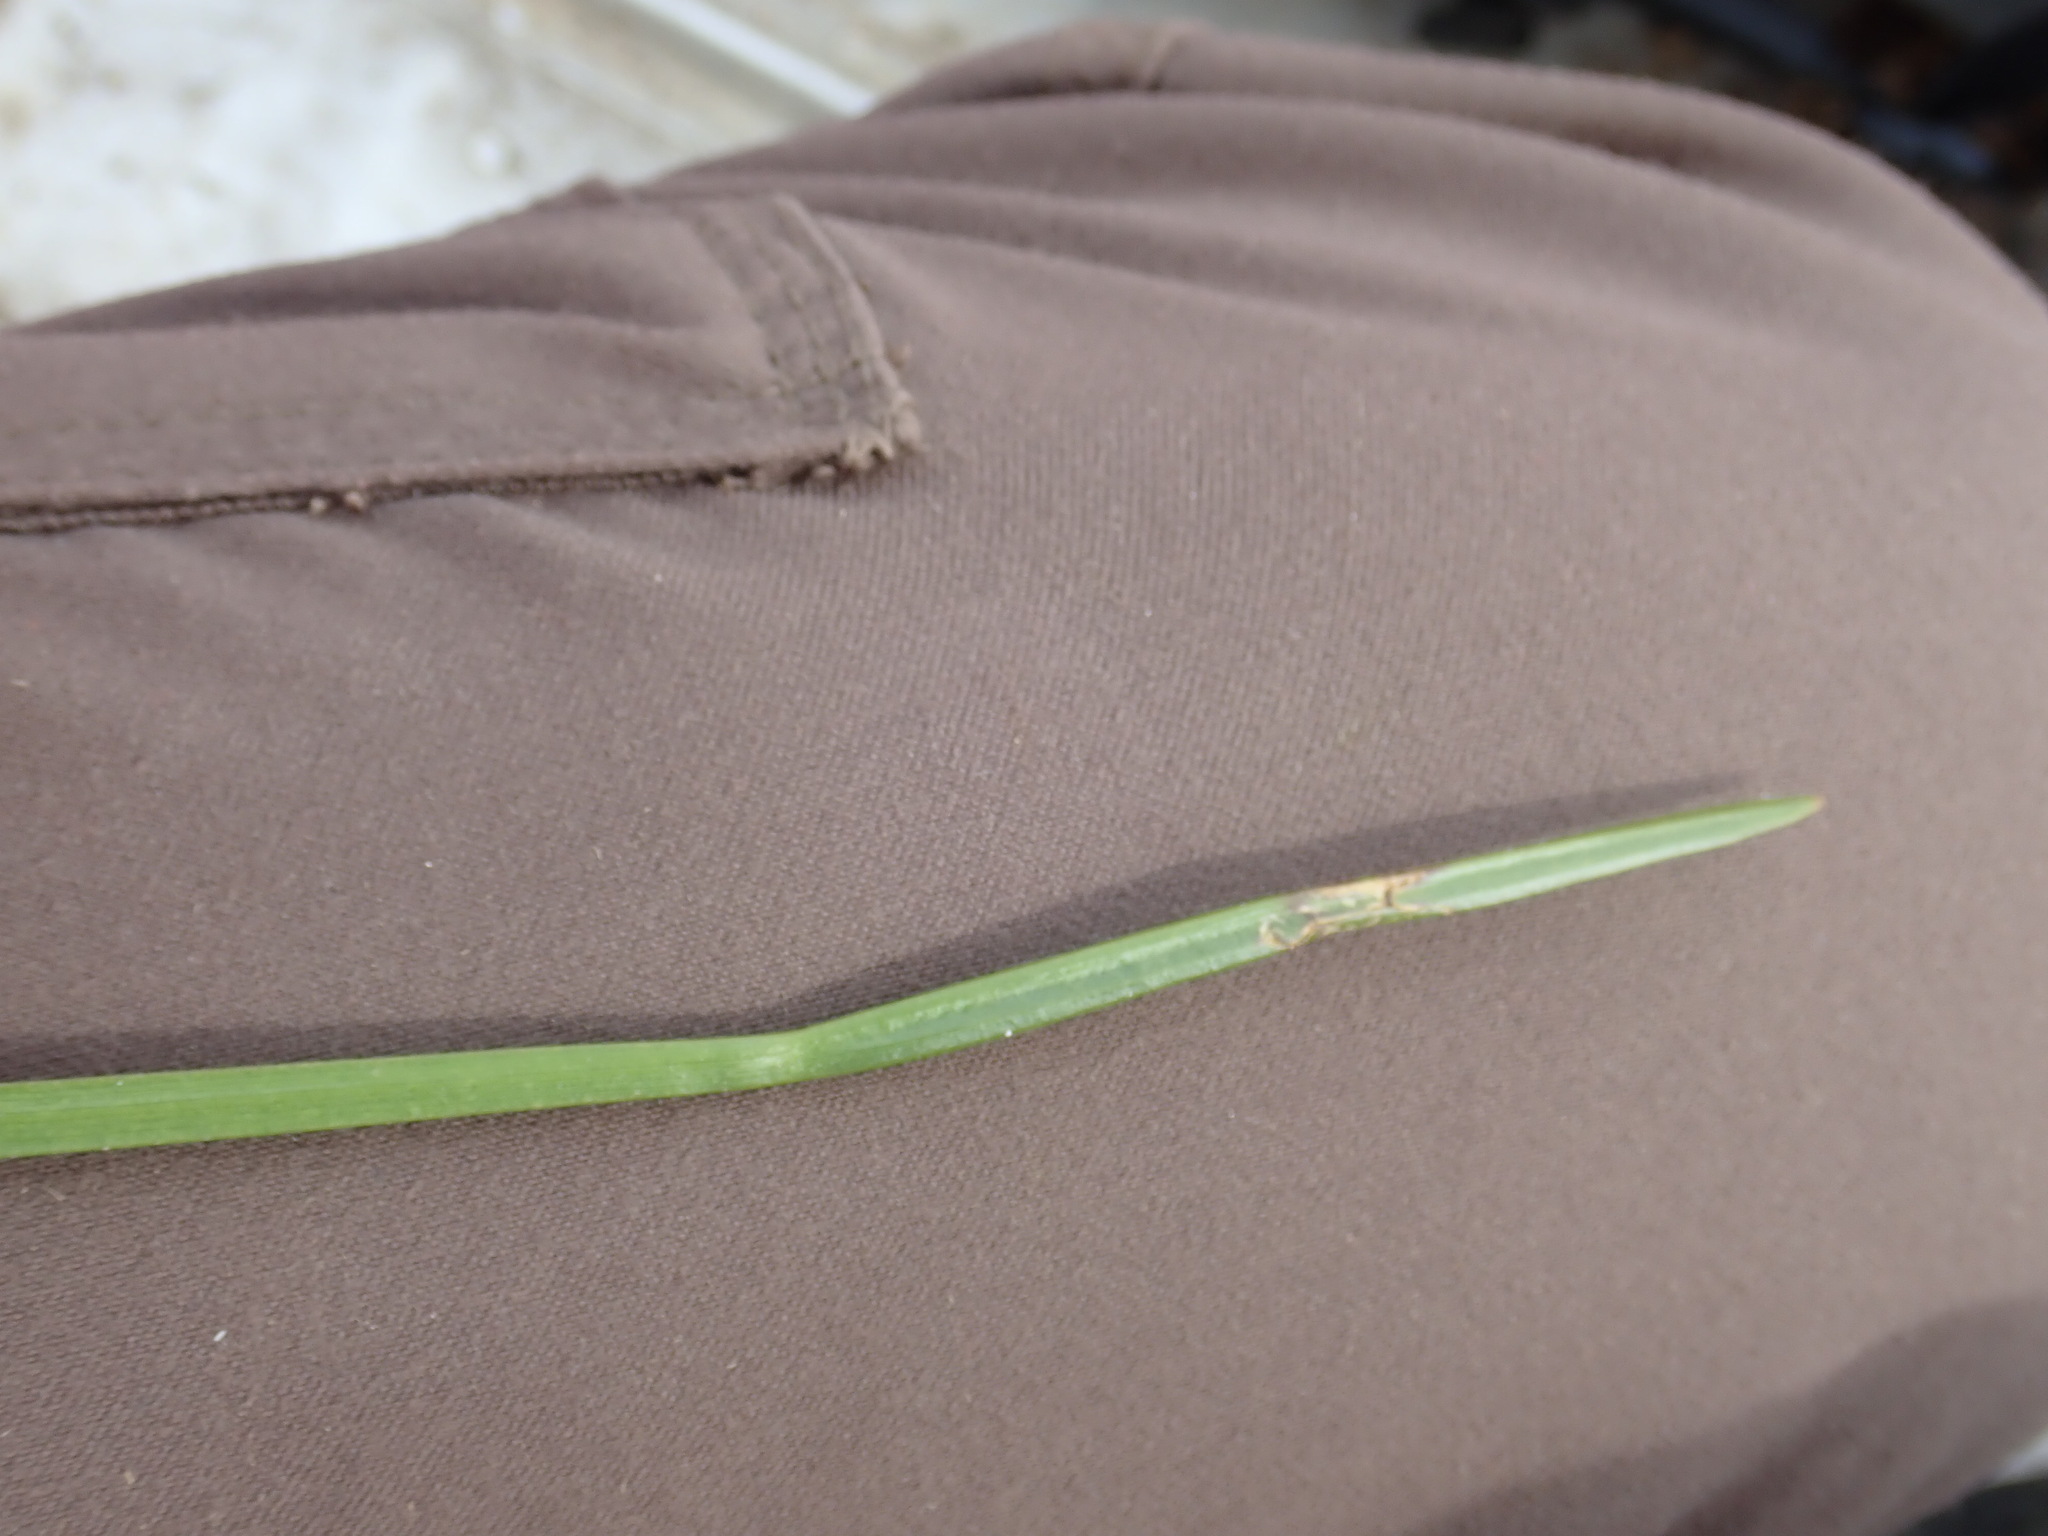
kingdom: Plantae
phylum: Tracheophyta
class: Liliopsida
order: Poales
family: Cyperaceae
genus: Schoenoplectus
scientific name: Schoenoplectus pungens
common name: Sharp club-rush
